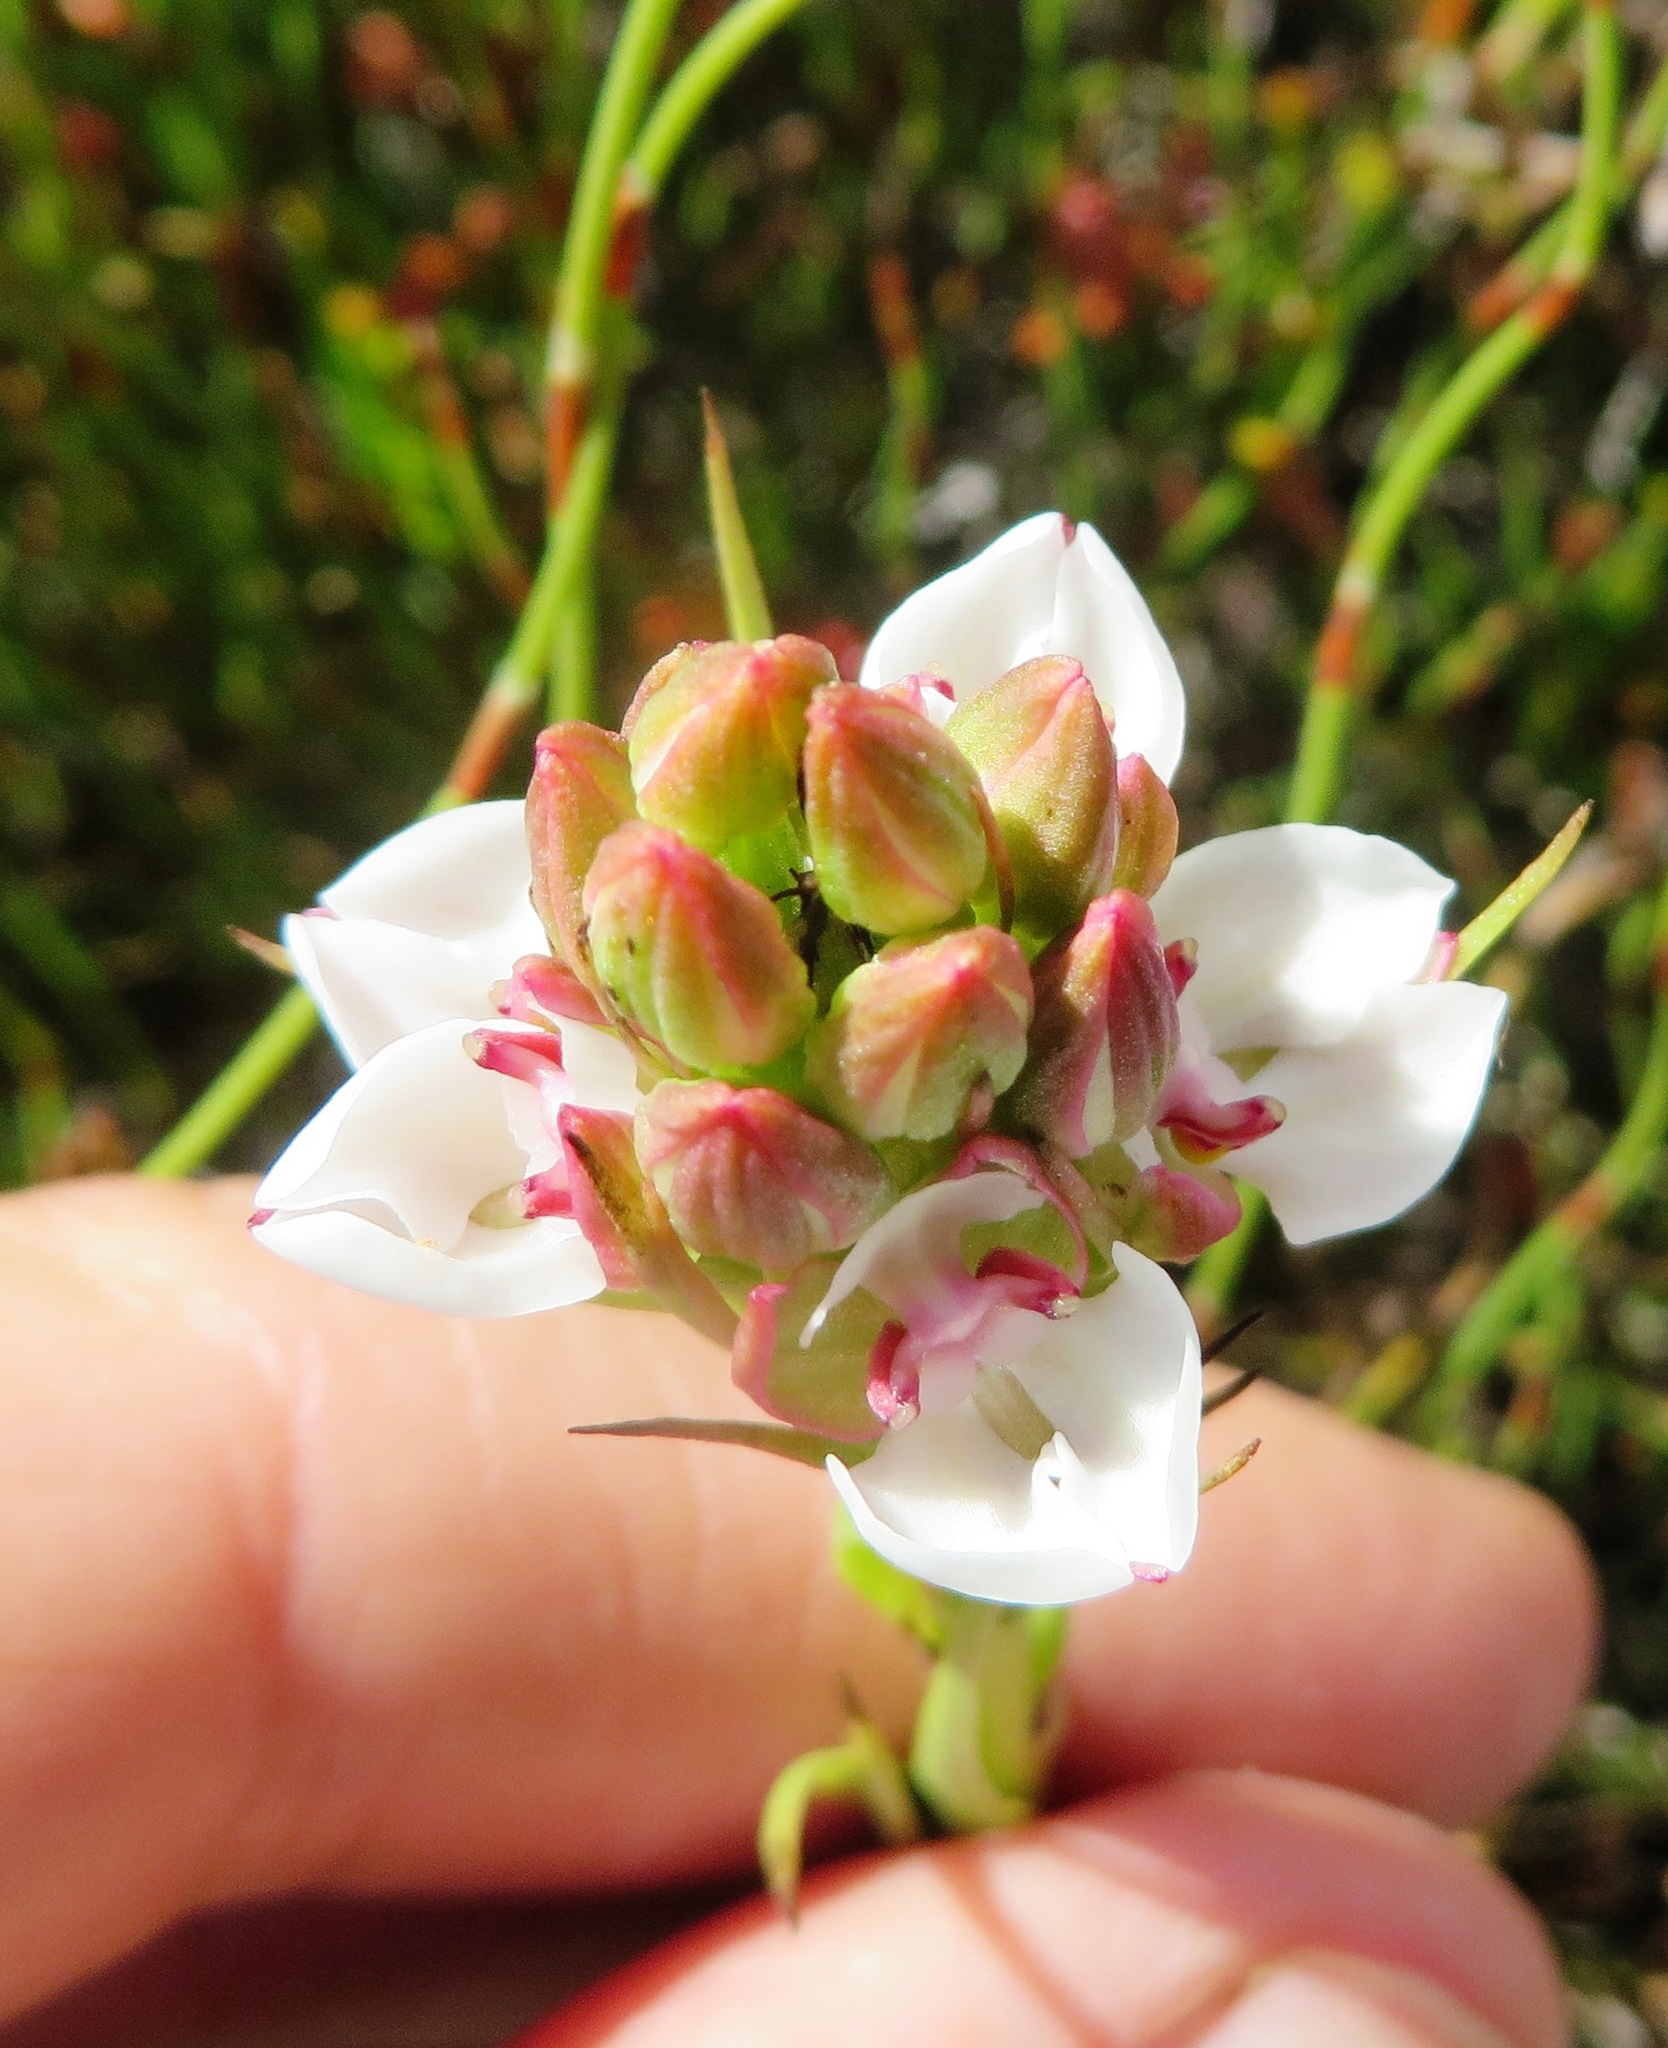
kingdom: Plantae
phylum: Tracheophyta
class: Liliopsida
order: Asparagales
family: Orchidaceae
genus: Ceratandra
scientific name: Ceratandra globosa
